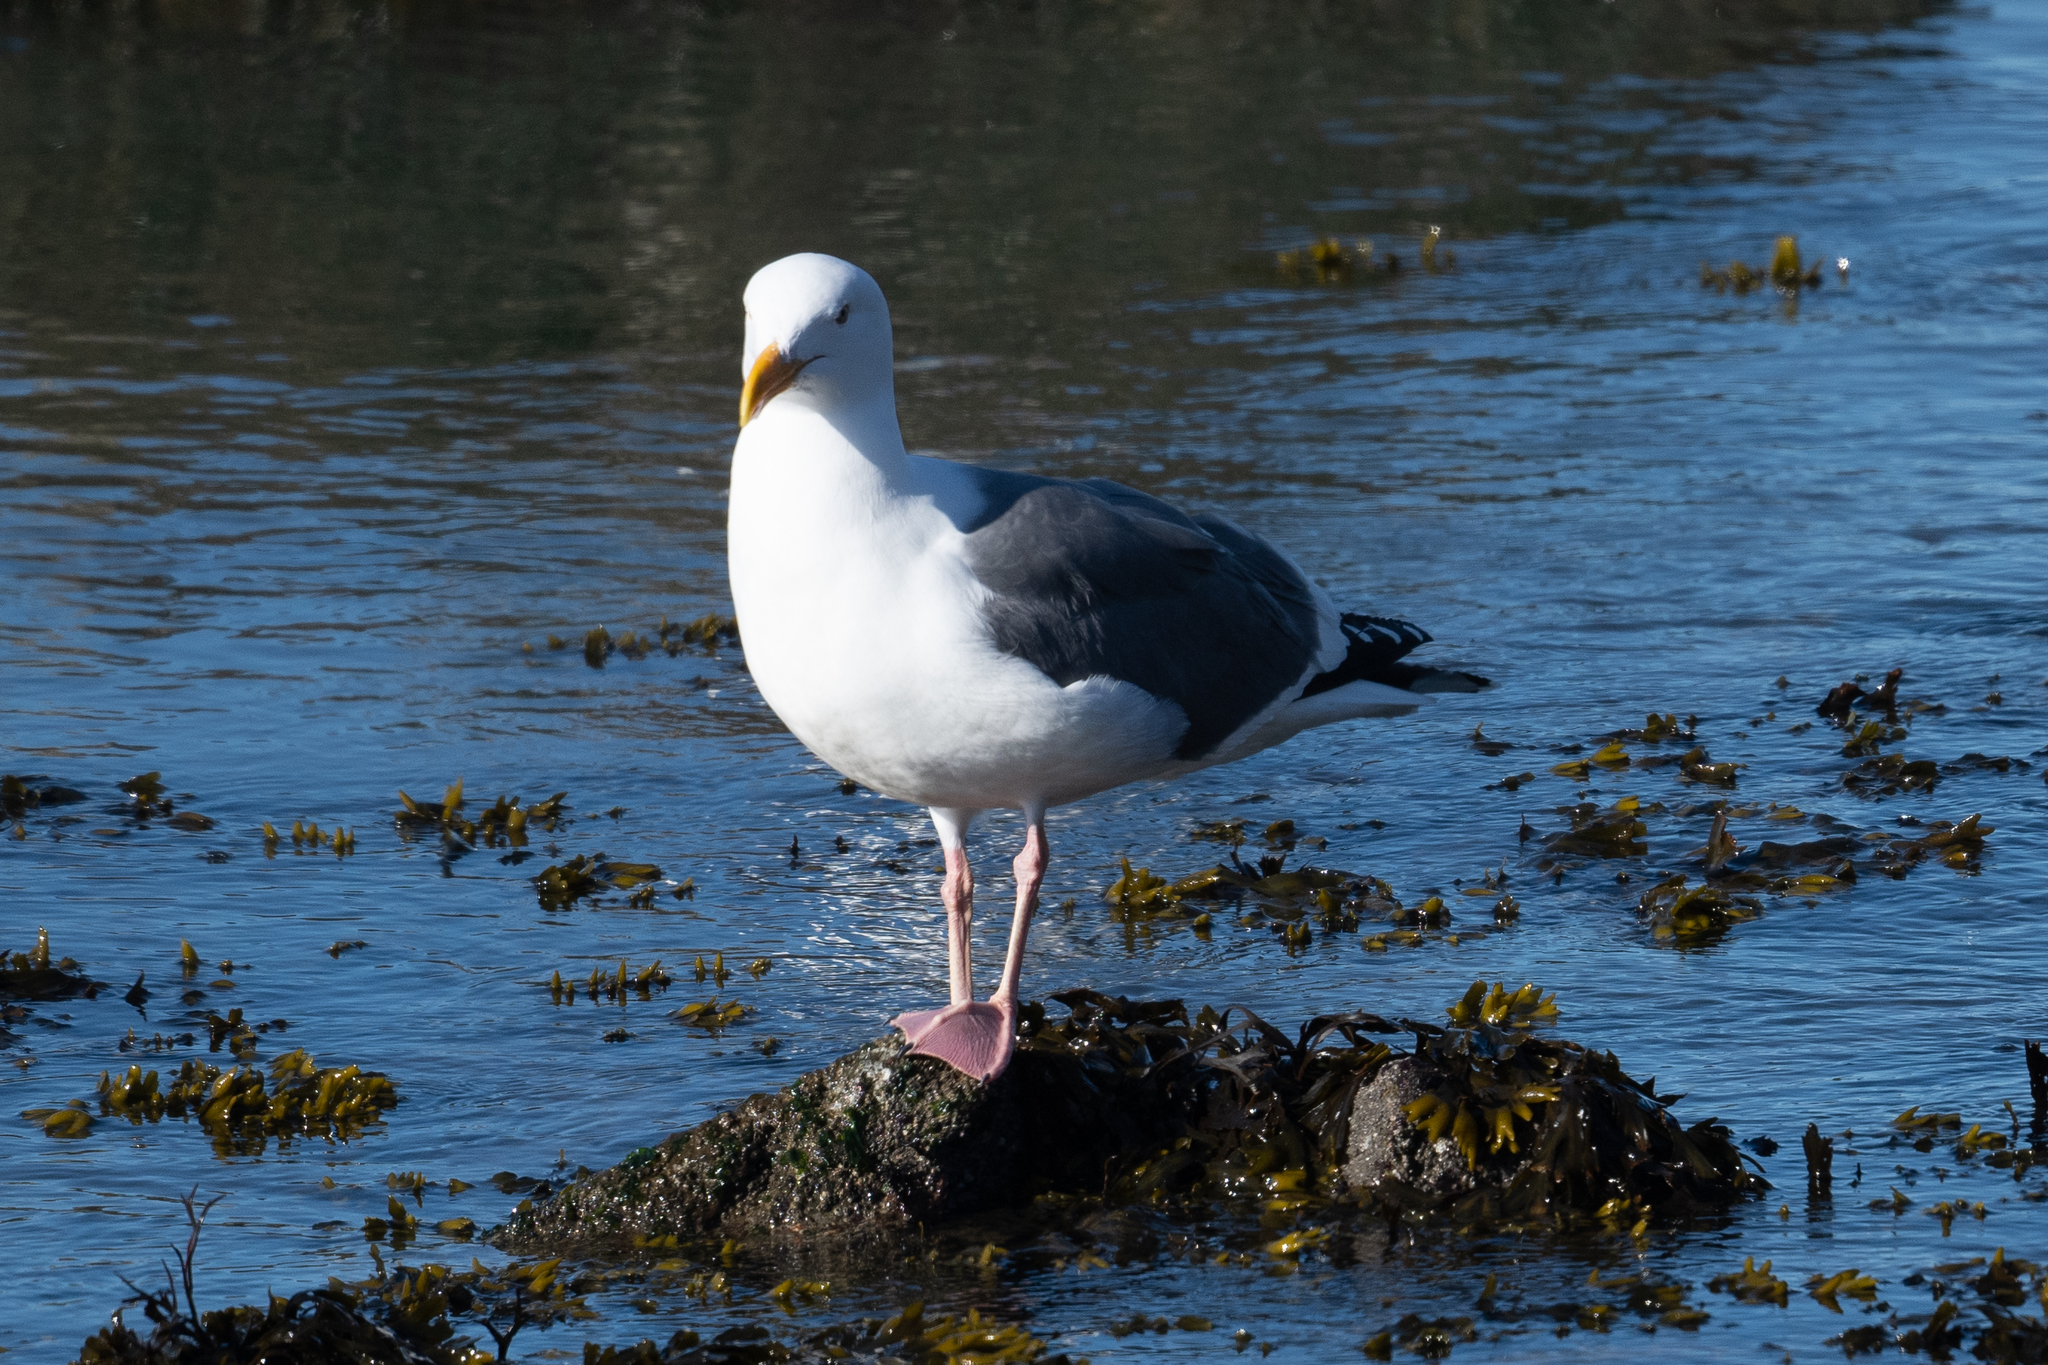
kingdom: Animalia
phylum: Chordata
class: Aves
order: Charadriiformes
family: Laridae
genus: Larus
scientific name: Larus occidentalis
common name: Western gull
